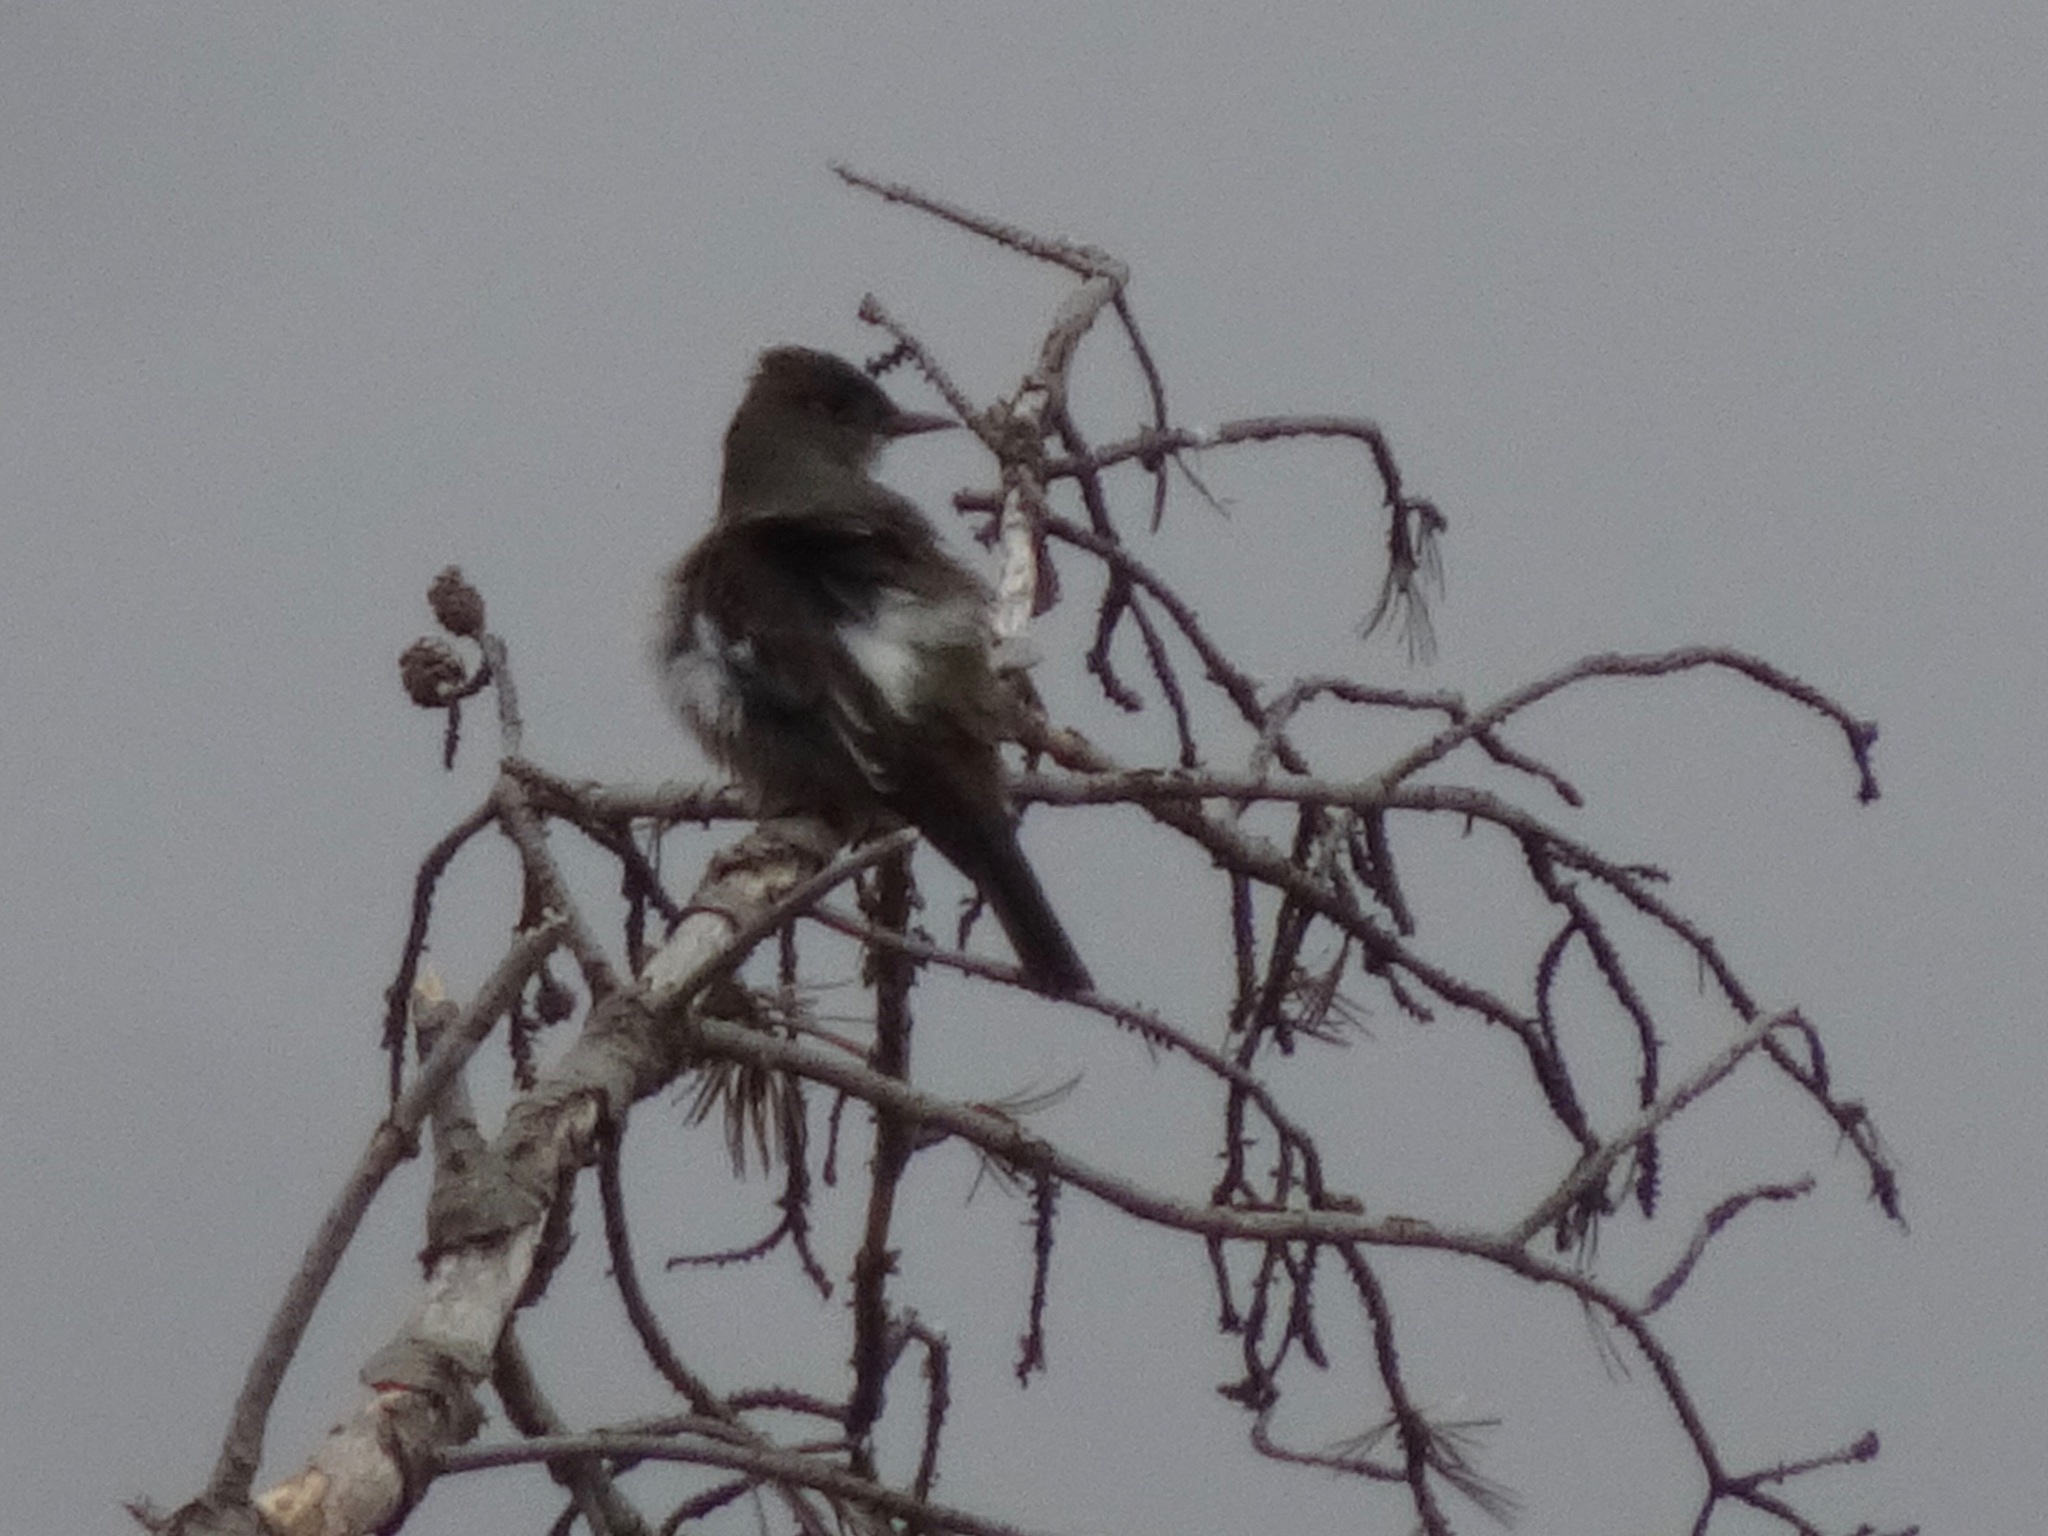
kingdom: Animalia
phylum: Chordata
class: Aves
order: Passeriformes
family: Tyrannidae
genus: Contopus
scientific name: Contopus cooperi
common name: Olive-sided flycatcher
